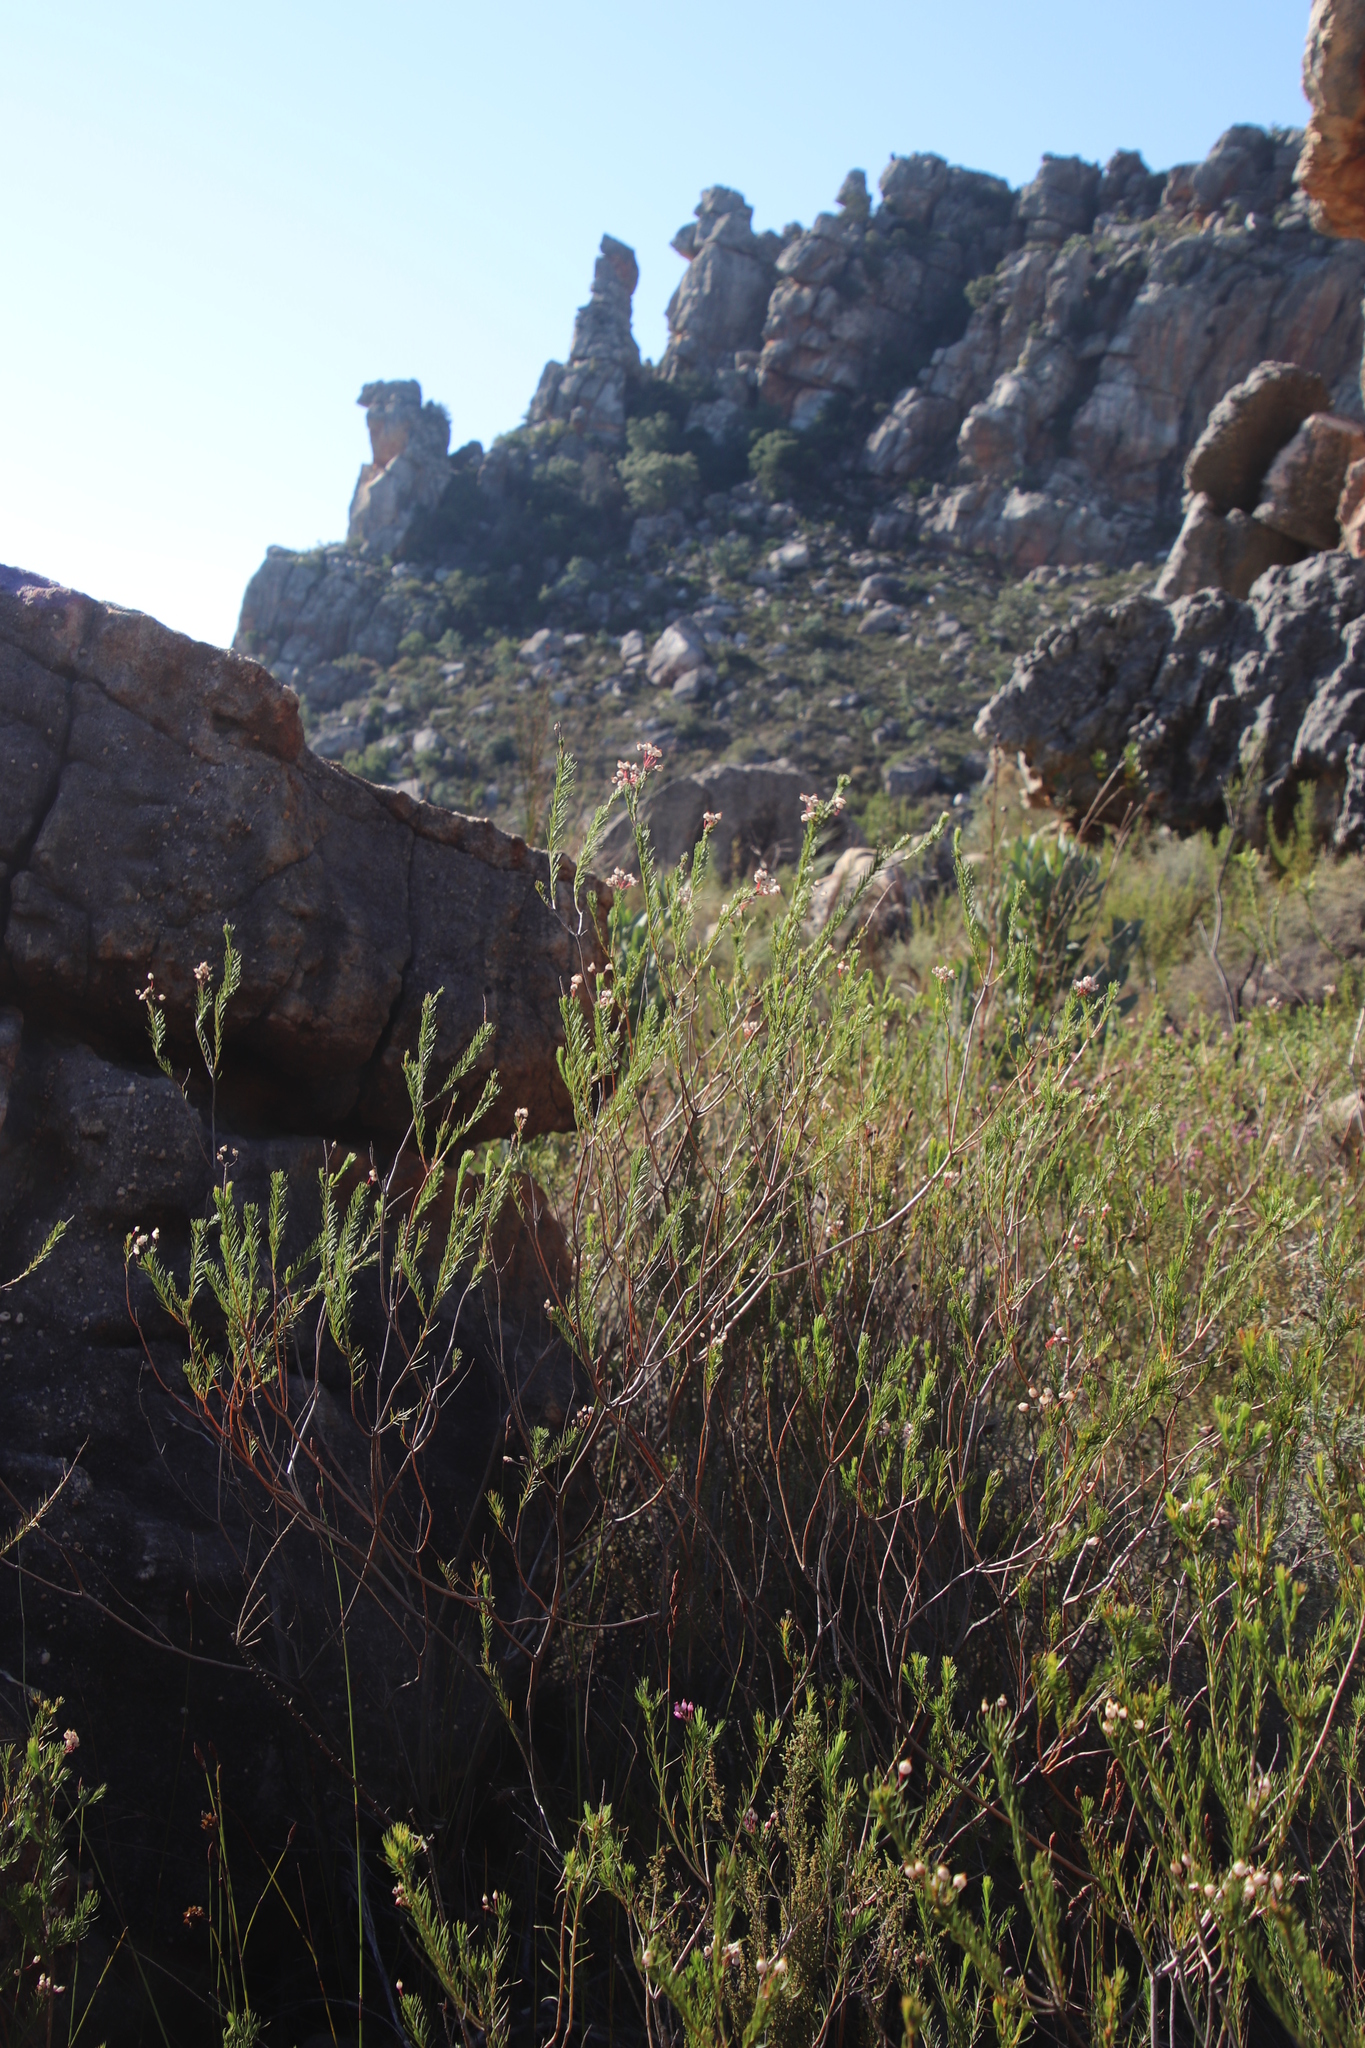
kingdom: Plantae
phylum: Tracheophyta
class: Magnoliopsida
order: Ericales
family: Ericaceae
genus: Erica
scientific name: Erica inflata
